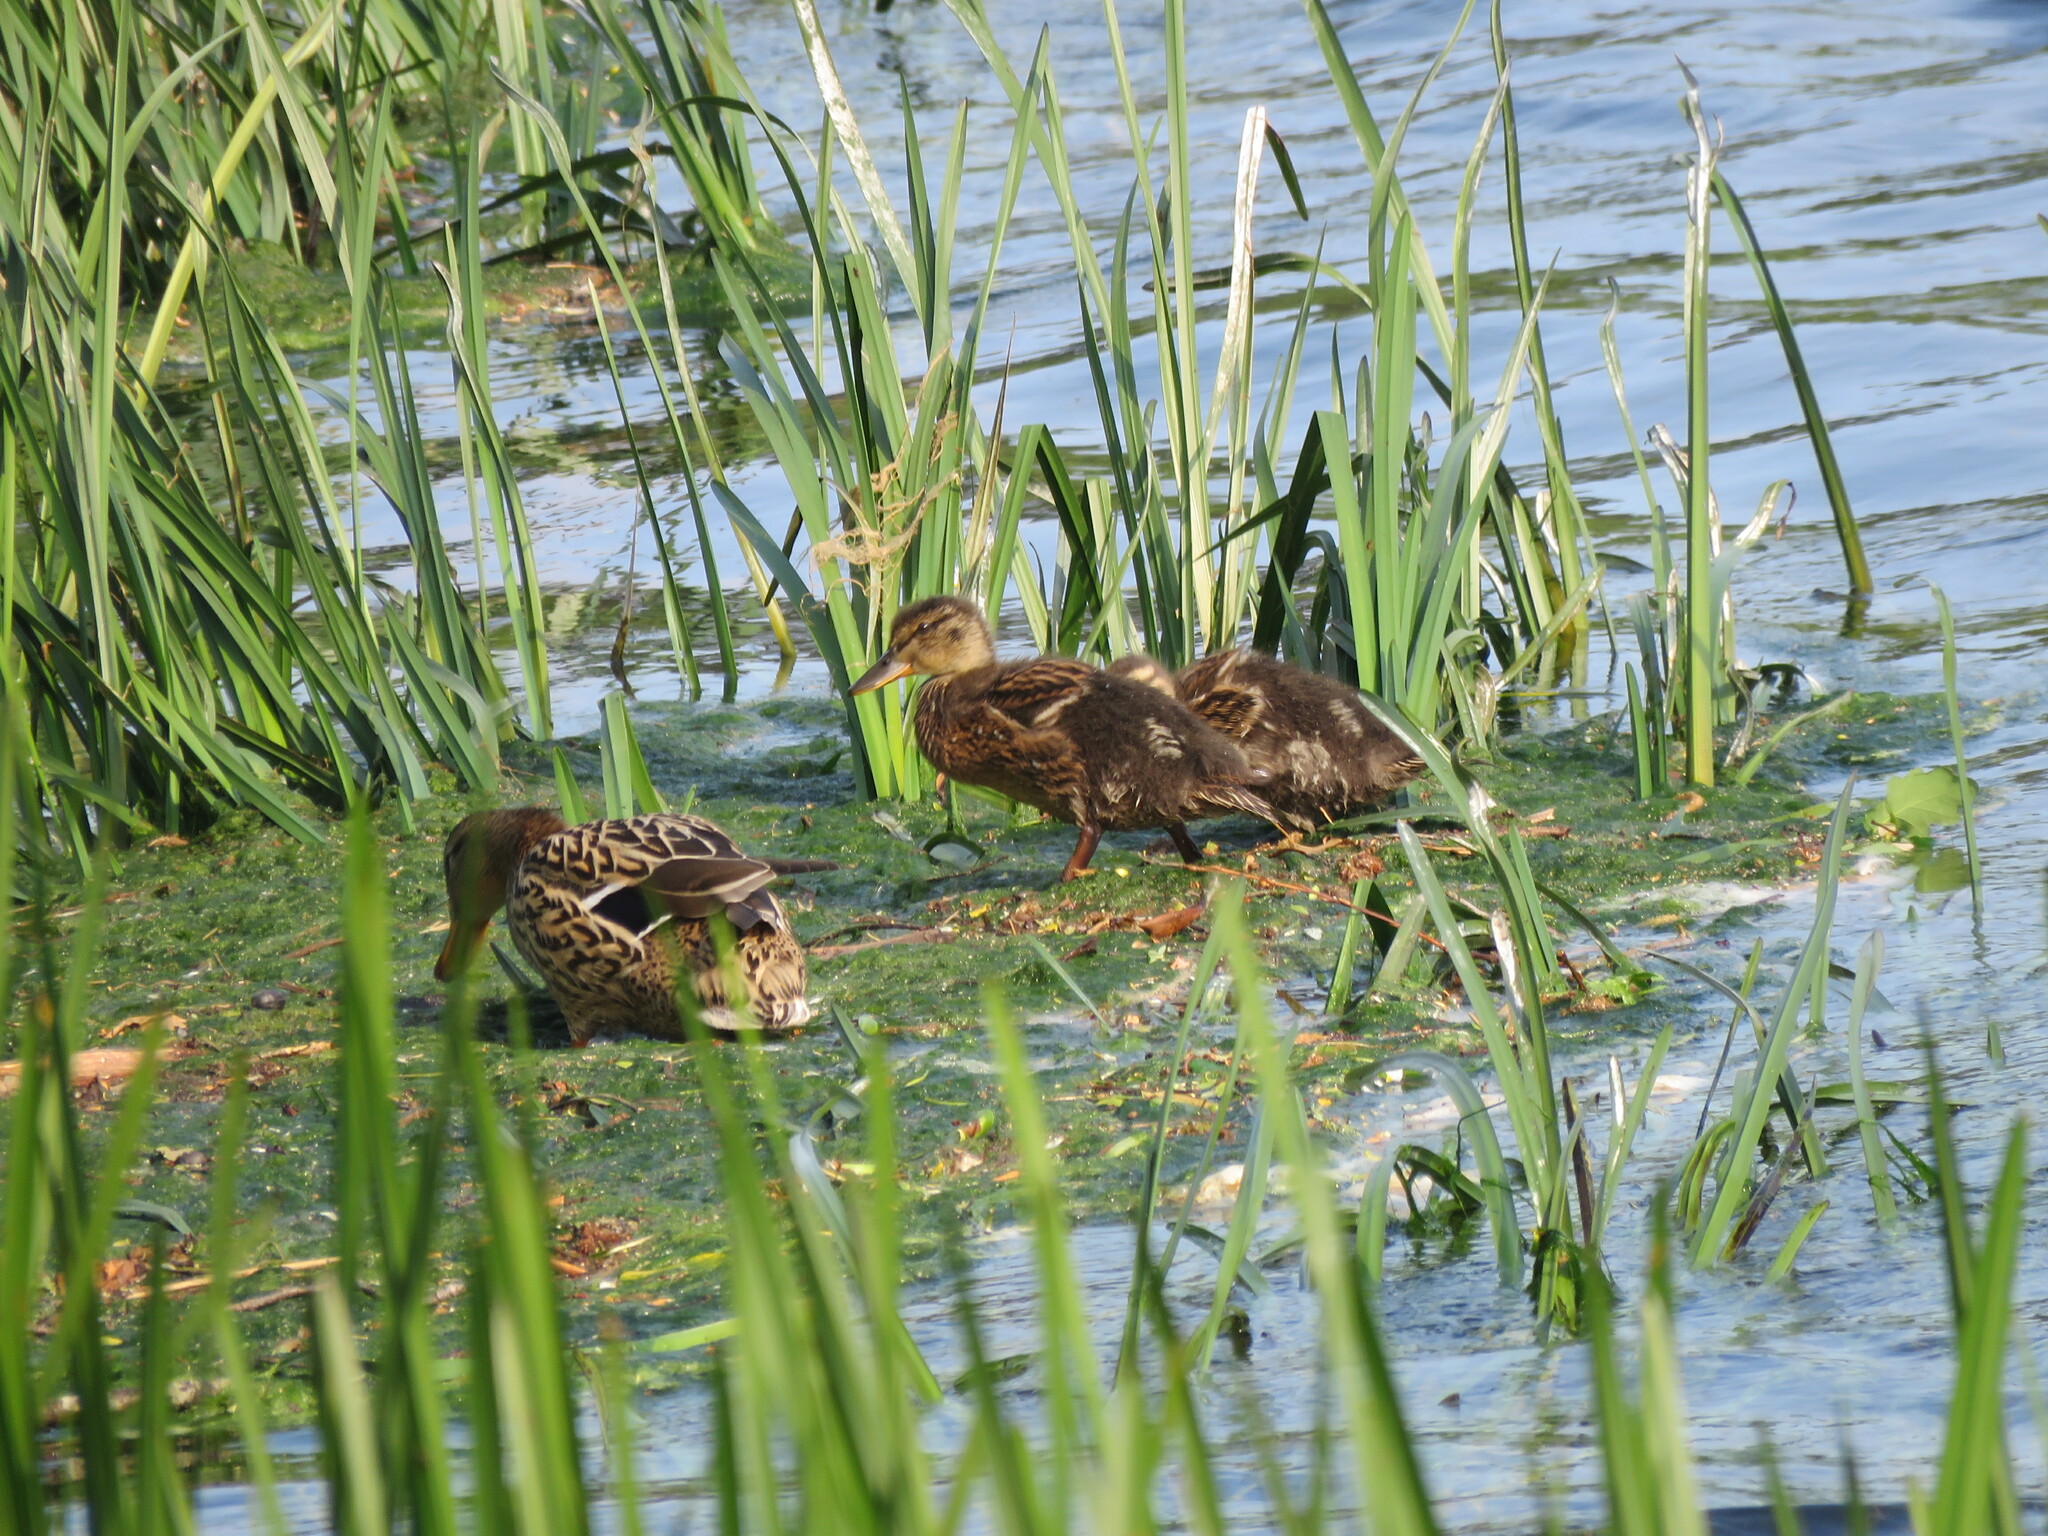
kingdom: Animalia
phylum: Chordata
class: Aves
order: Anseriformes
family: Anatidae
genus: Anas
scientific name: Anas platyrhynchos
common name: Mallard
